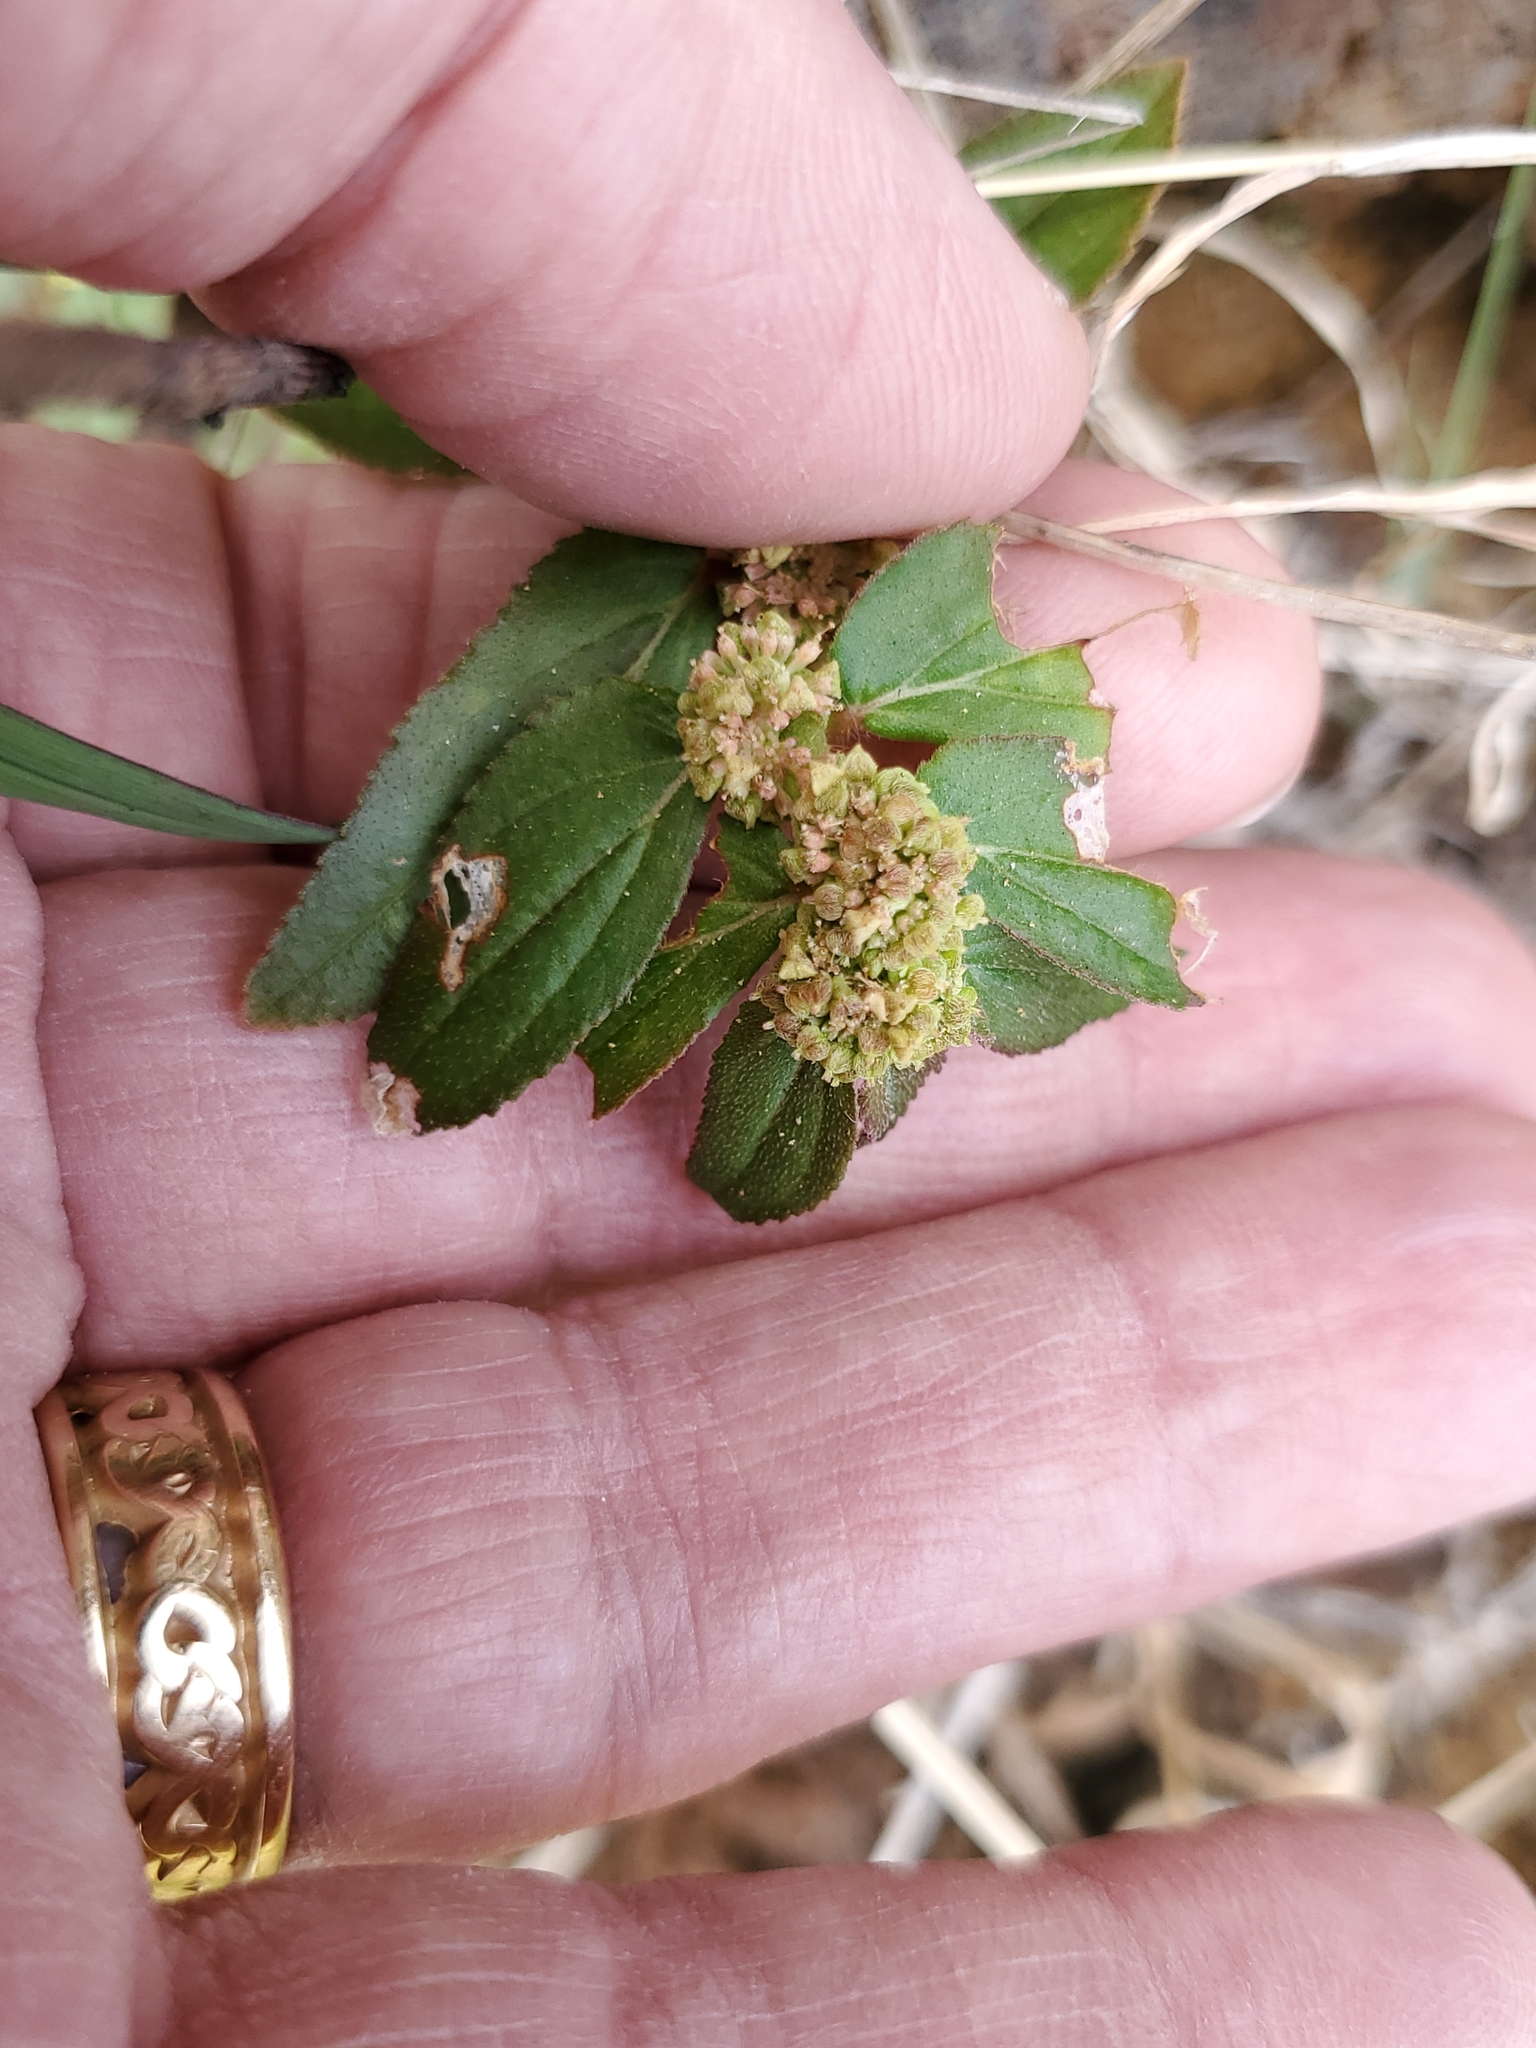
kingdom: Plantae
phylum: Tracheophyta
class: Magnoliopsida
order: Malpighiales
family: Euphorbiaceae
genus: Euphorbia
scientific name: Euphorbia hirta
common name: Pillpod sandmat
